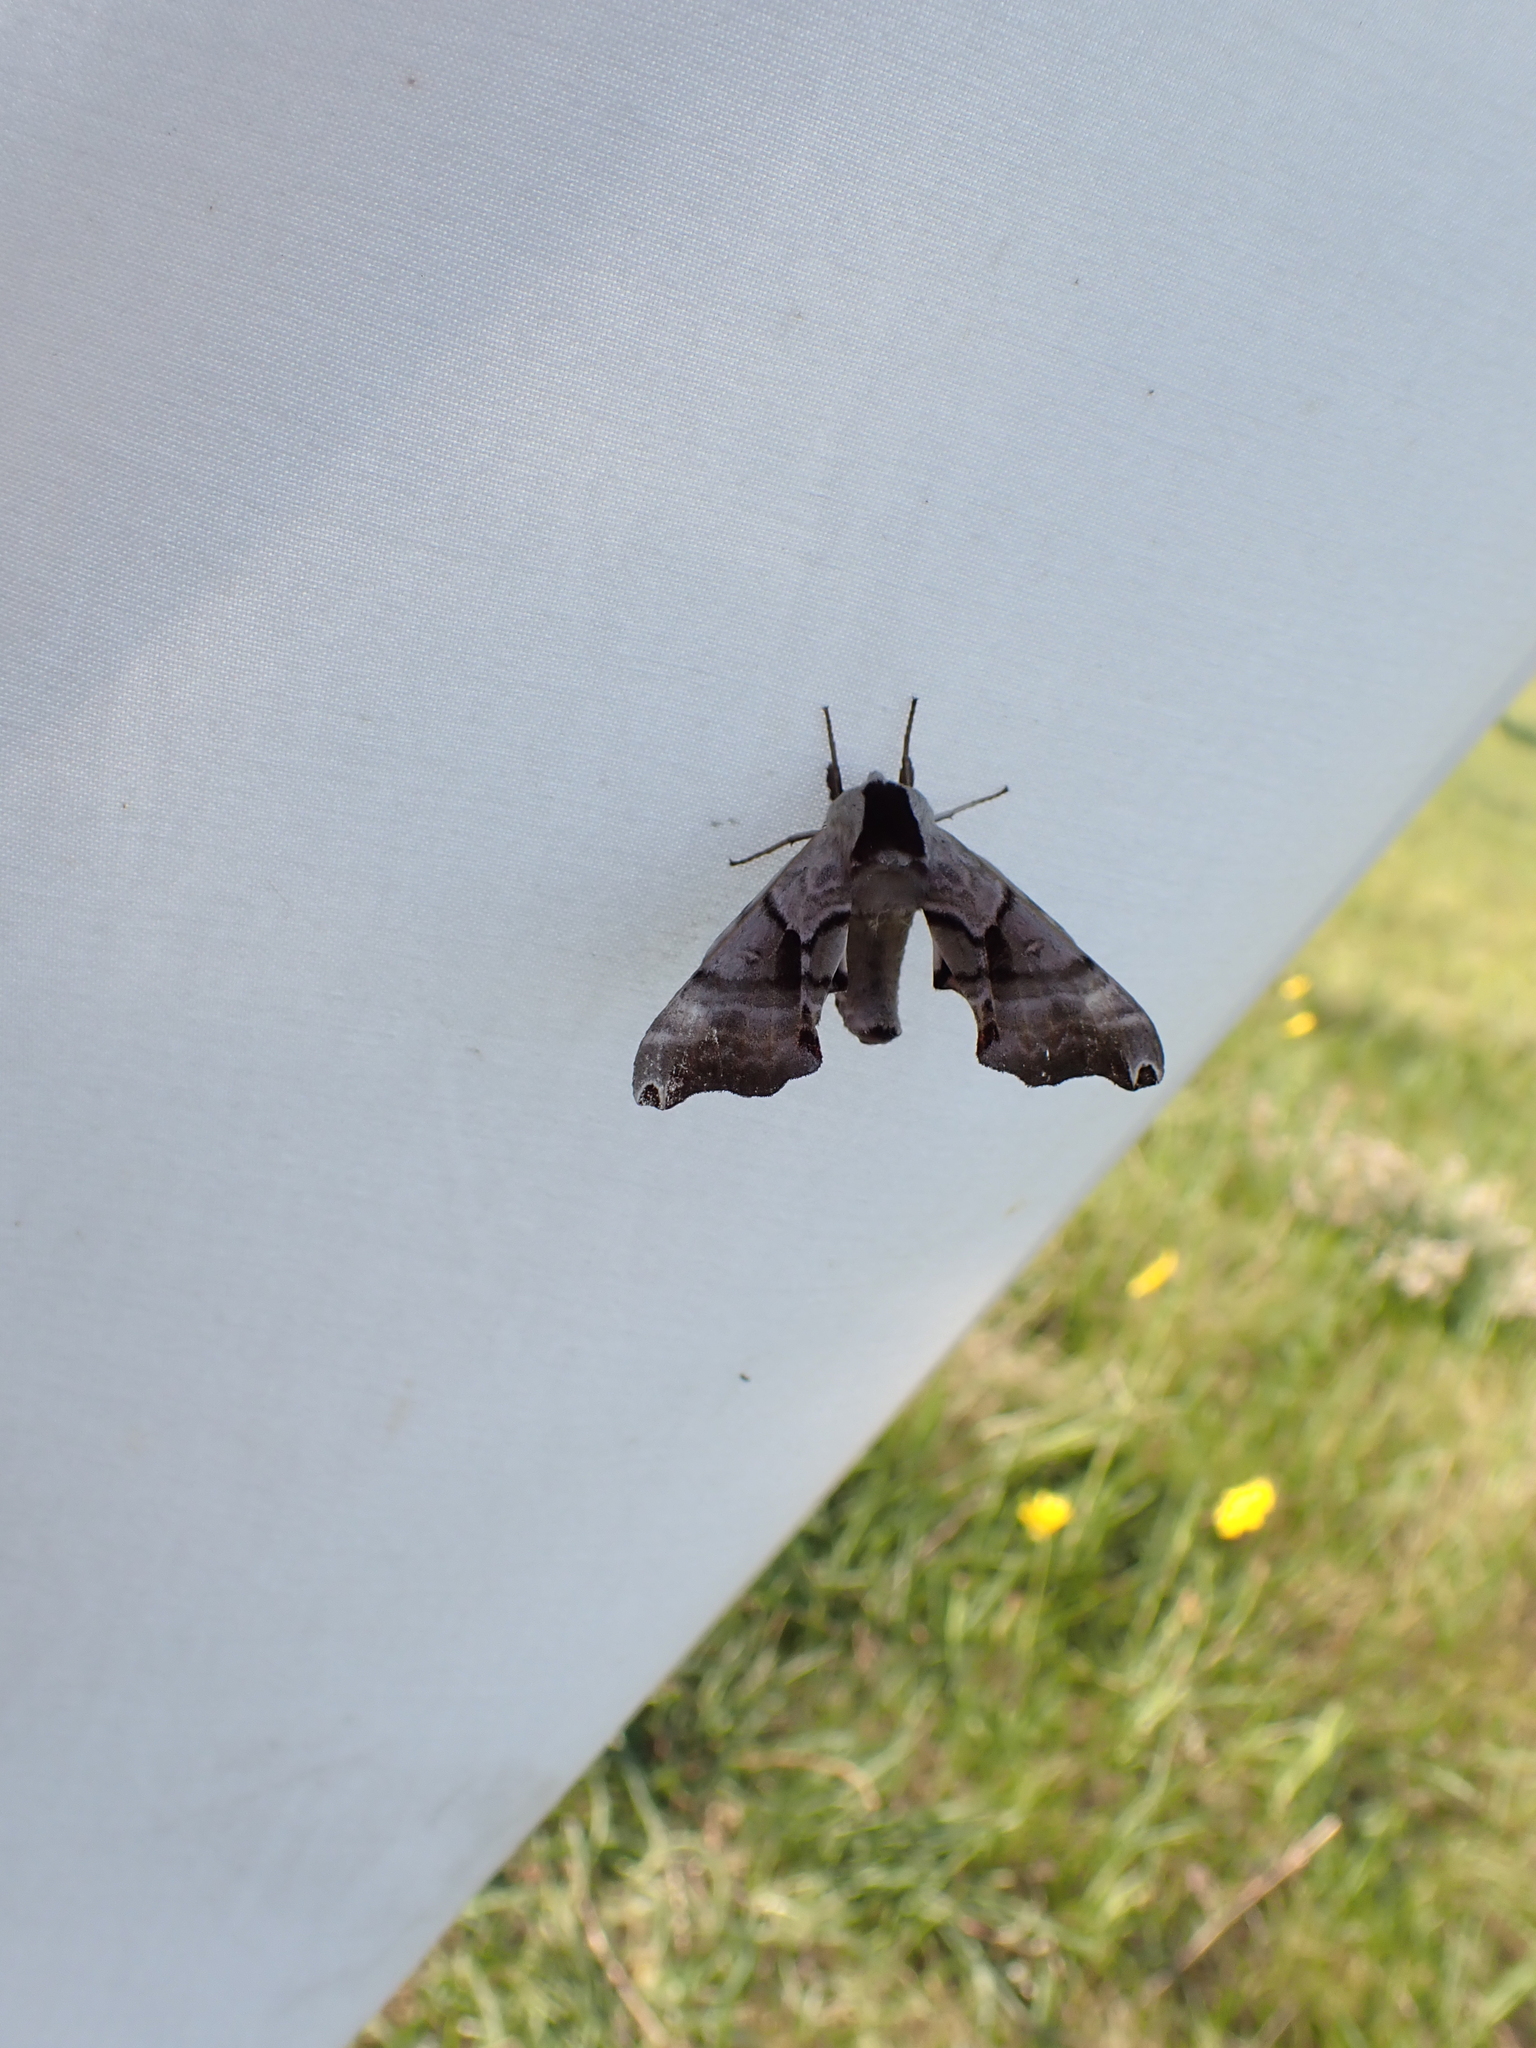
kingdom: Animalia
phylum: Arthropoda
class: Insecta
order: Lepidoptera
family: Sphingidae
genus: Smerinthus
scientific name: Smerinthus jamaicensis
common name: Twin spotted sphinx
